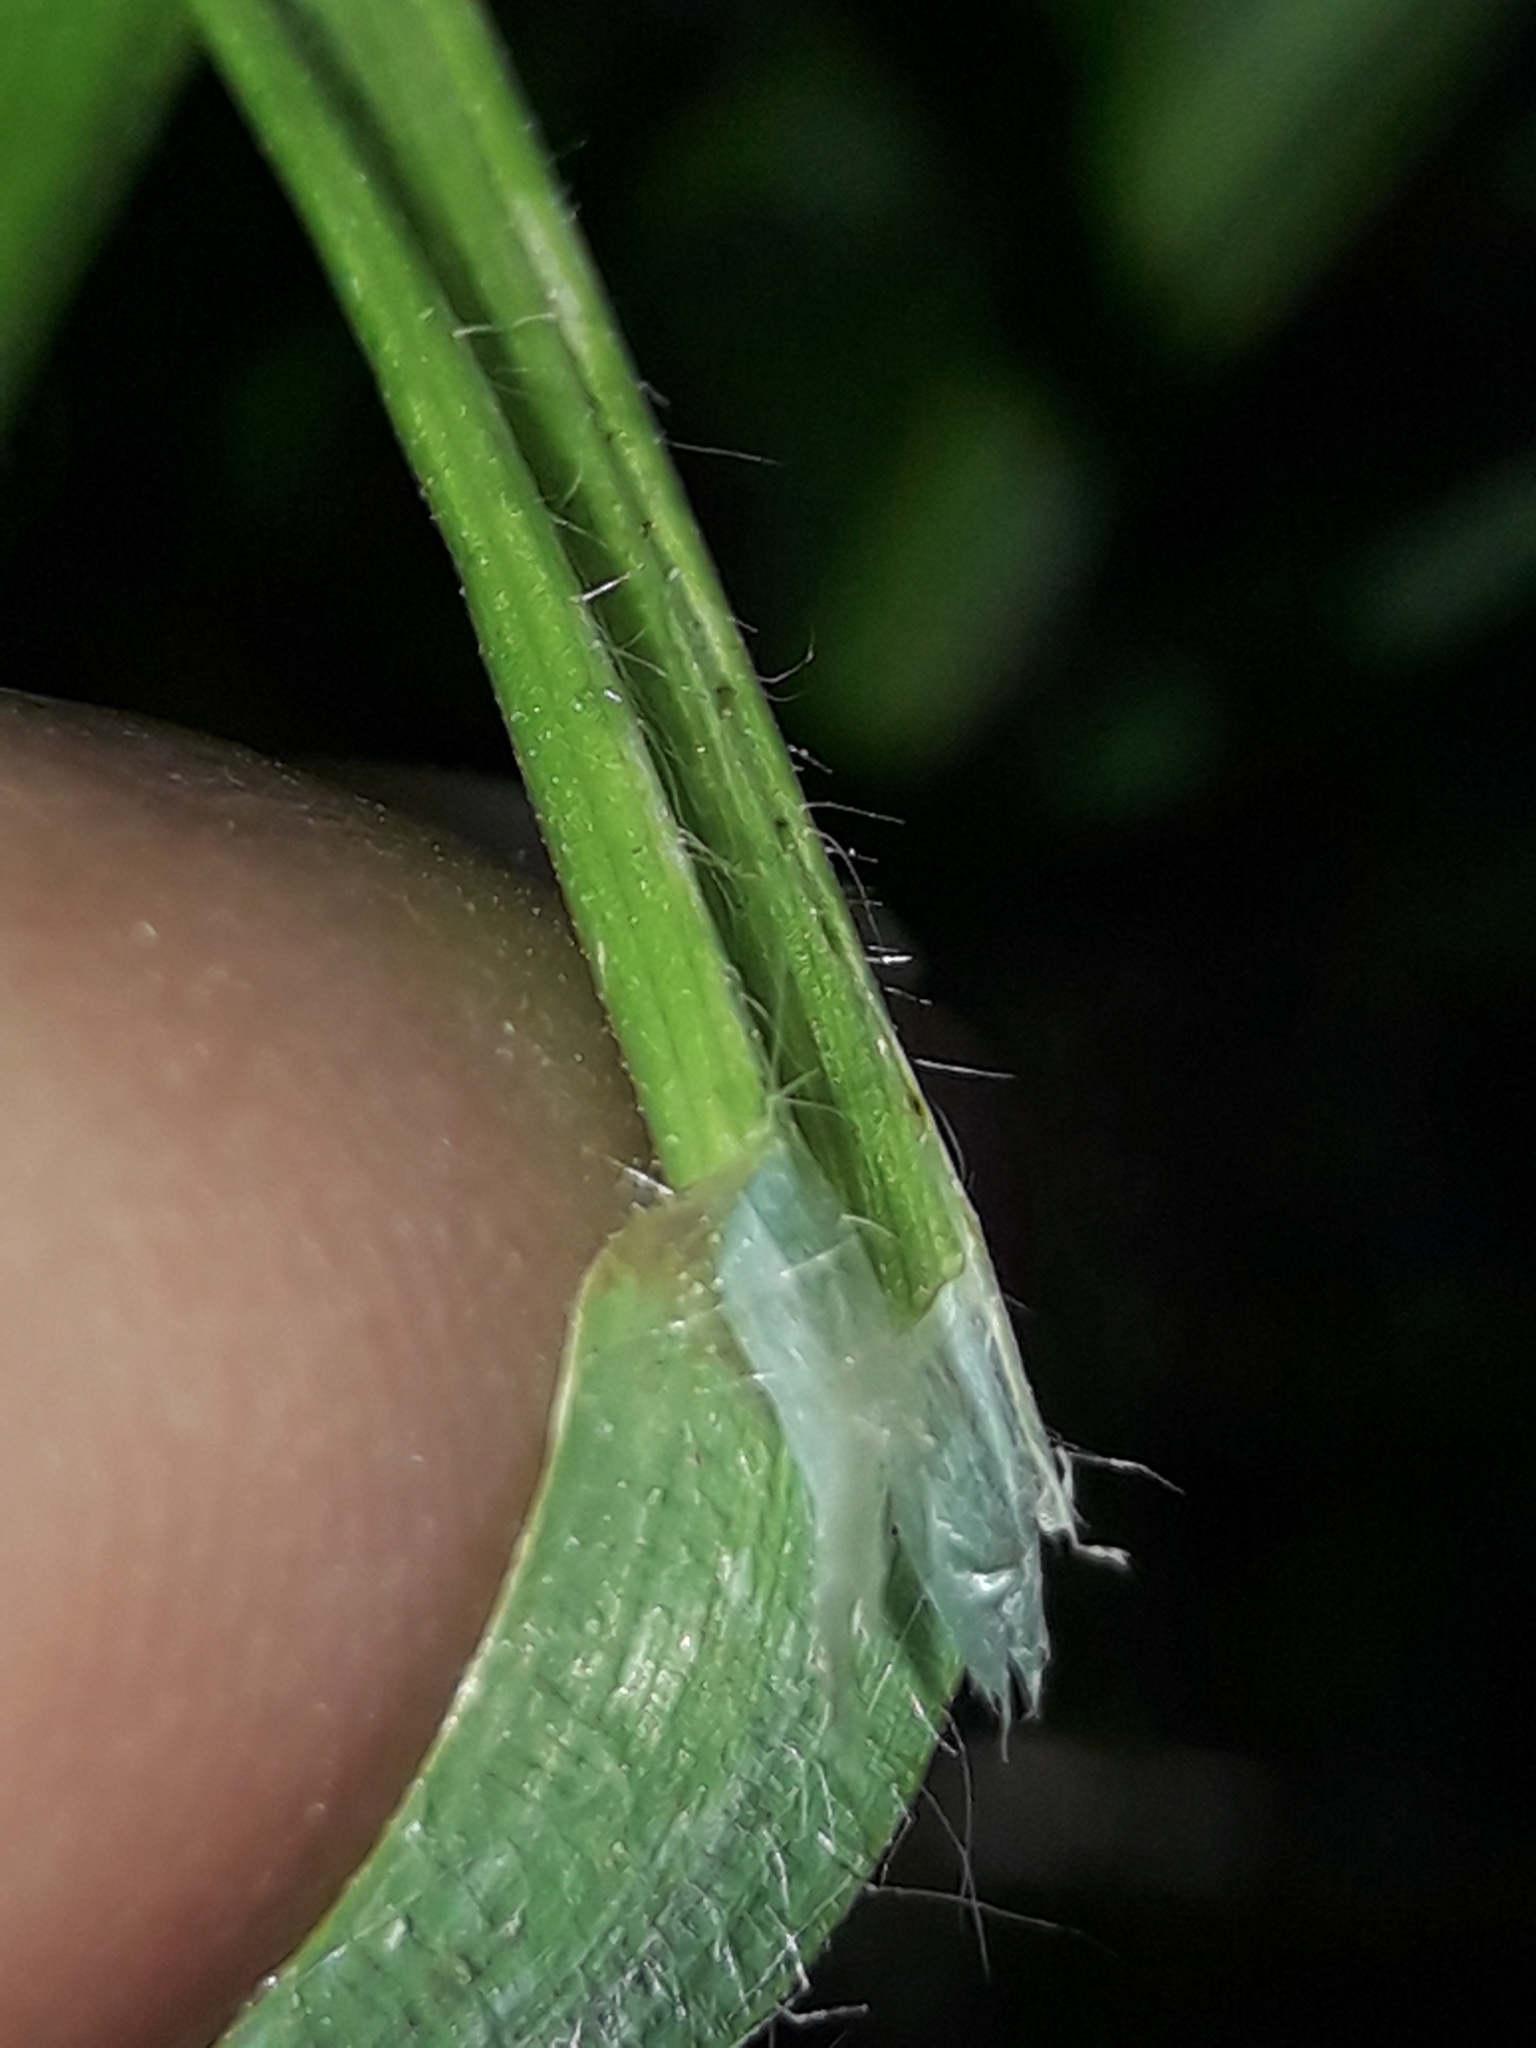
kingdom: Plantae
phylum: Tracheophyta
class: Liliopsida
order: Poales
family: Poaceae
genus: Bromus
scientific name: Bromus diandrus
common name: Ripgut brome
